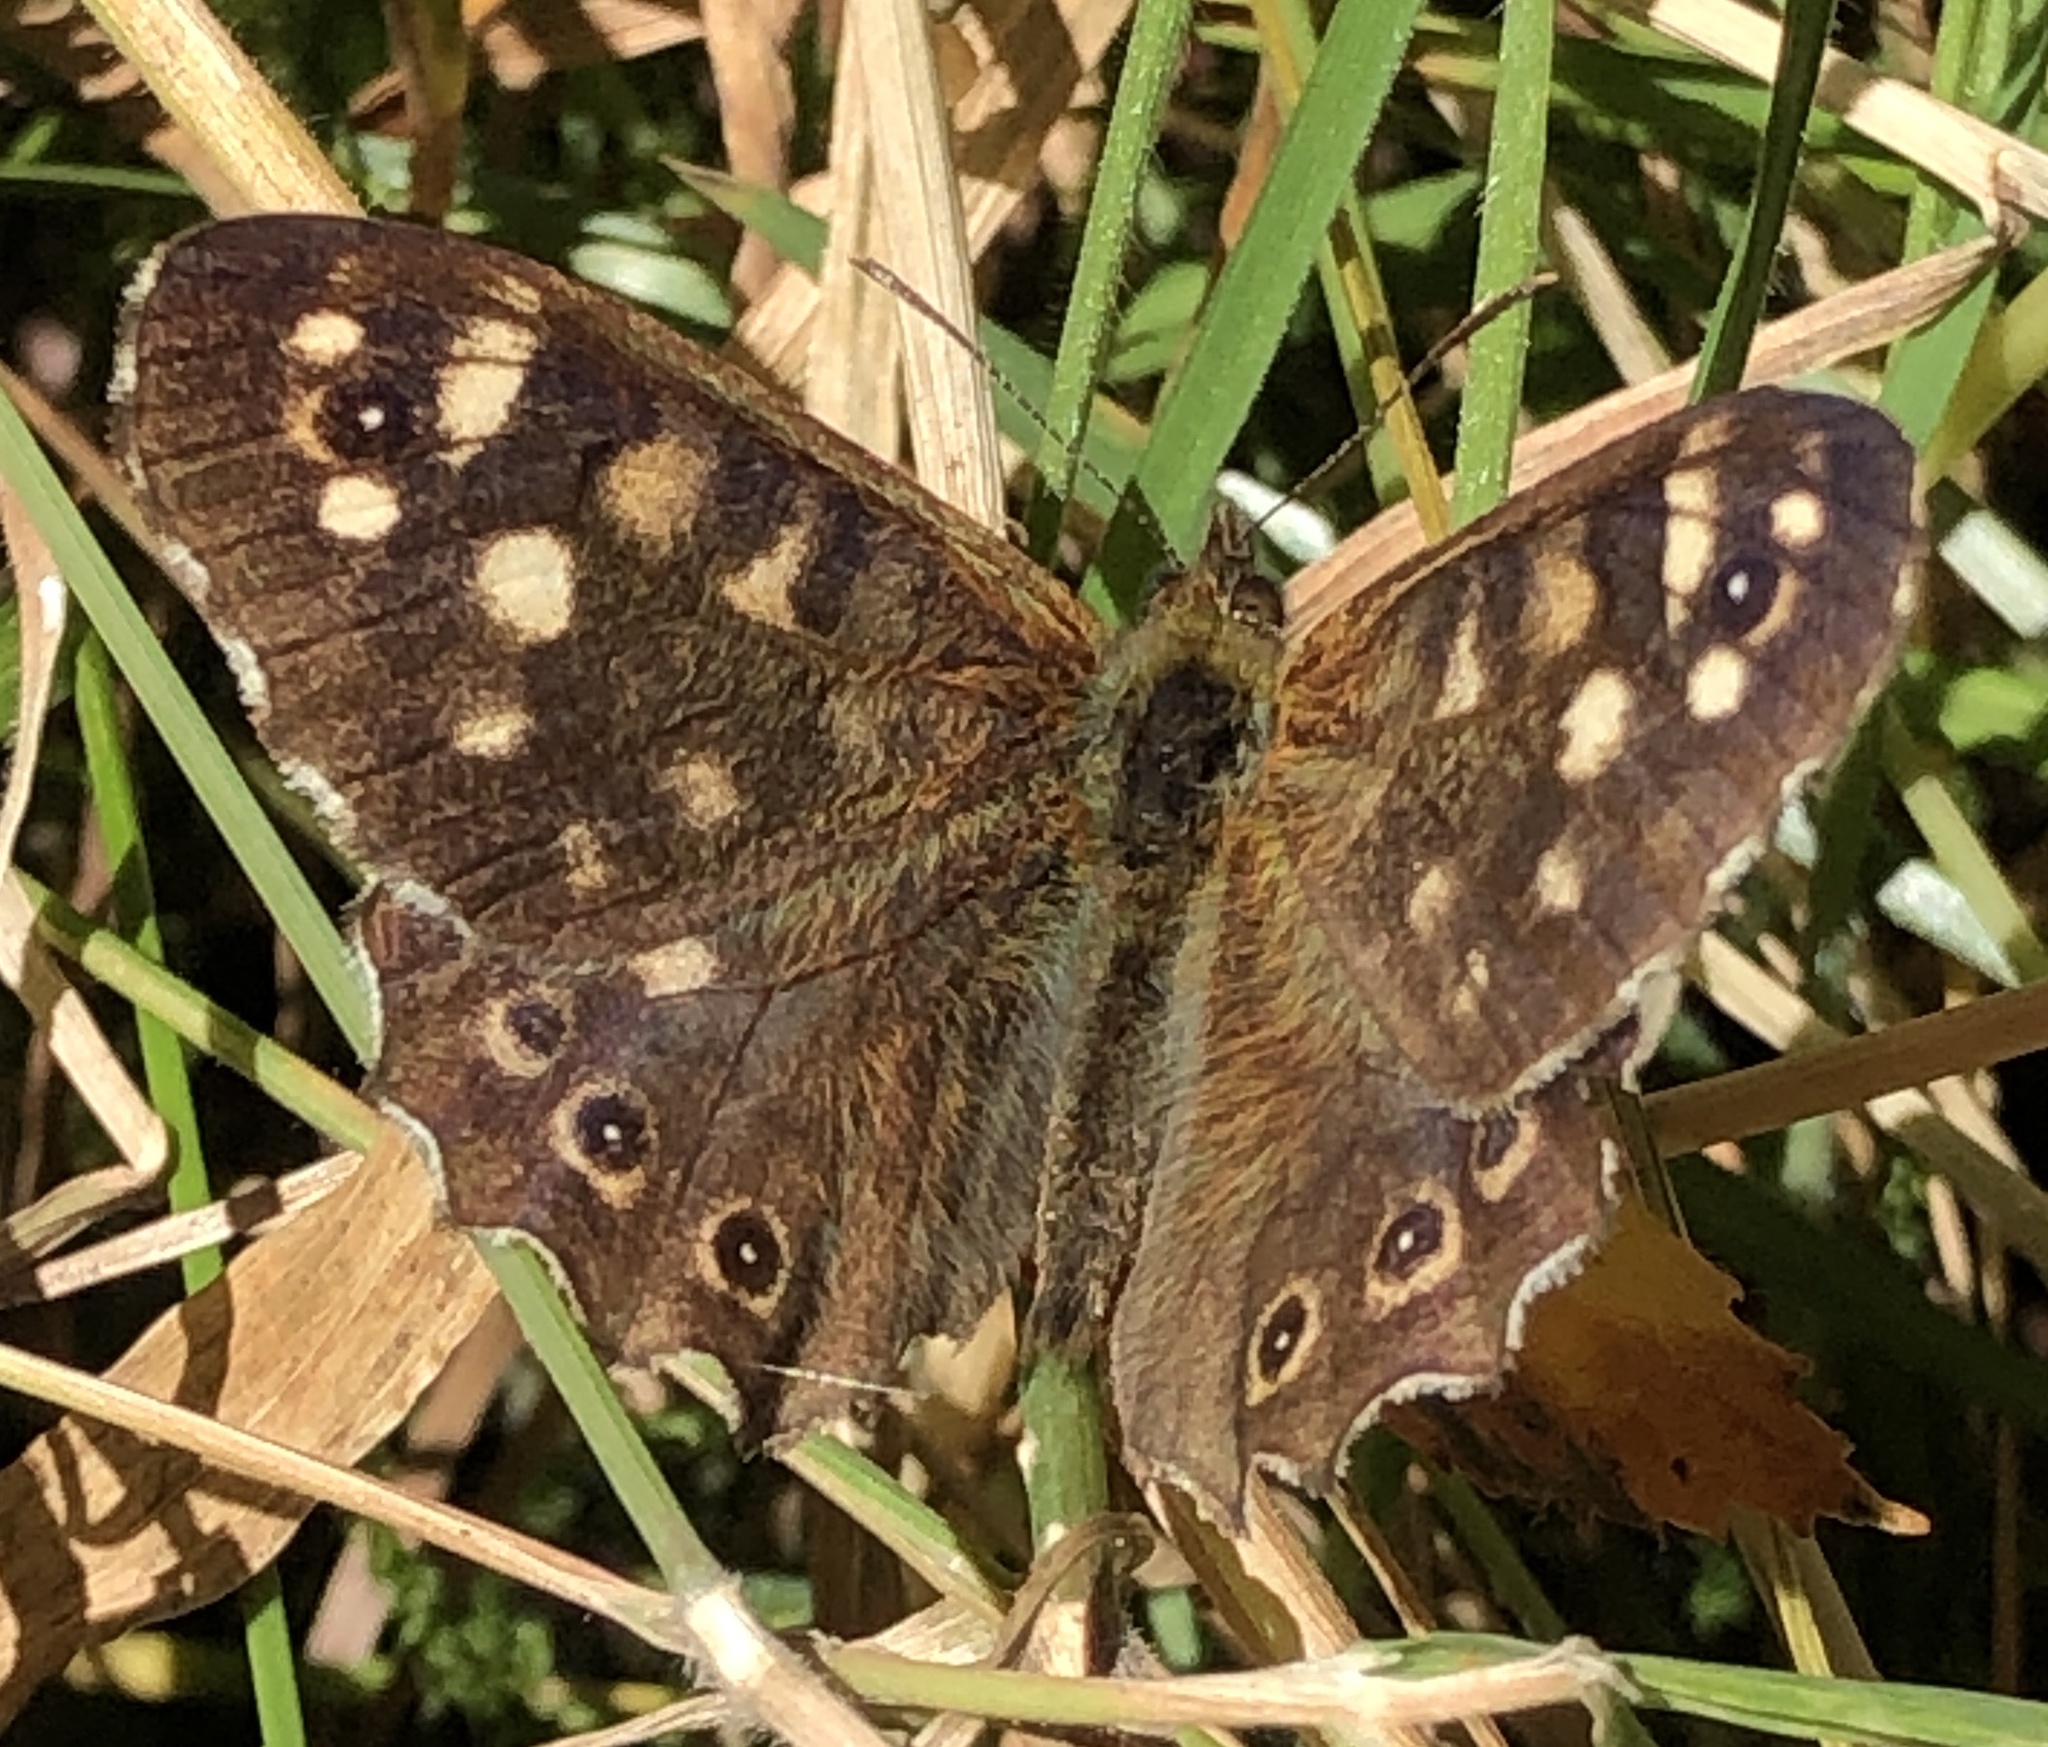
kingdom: Animalia
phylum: Arthropoda
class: Insecta
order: Lepidoptera
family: Nymphalidae
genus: Pararge
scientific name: Pararge aegeria
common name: Speckled wood
